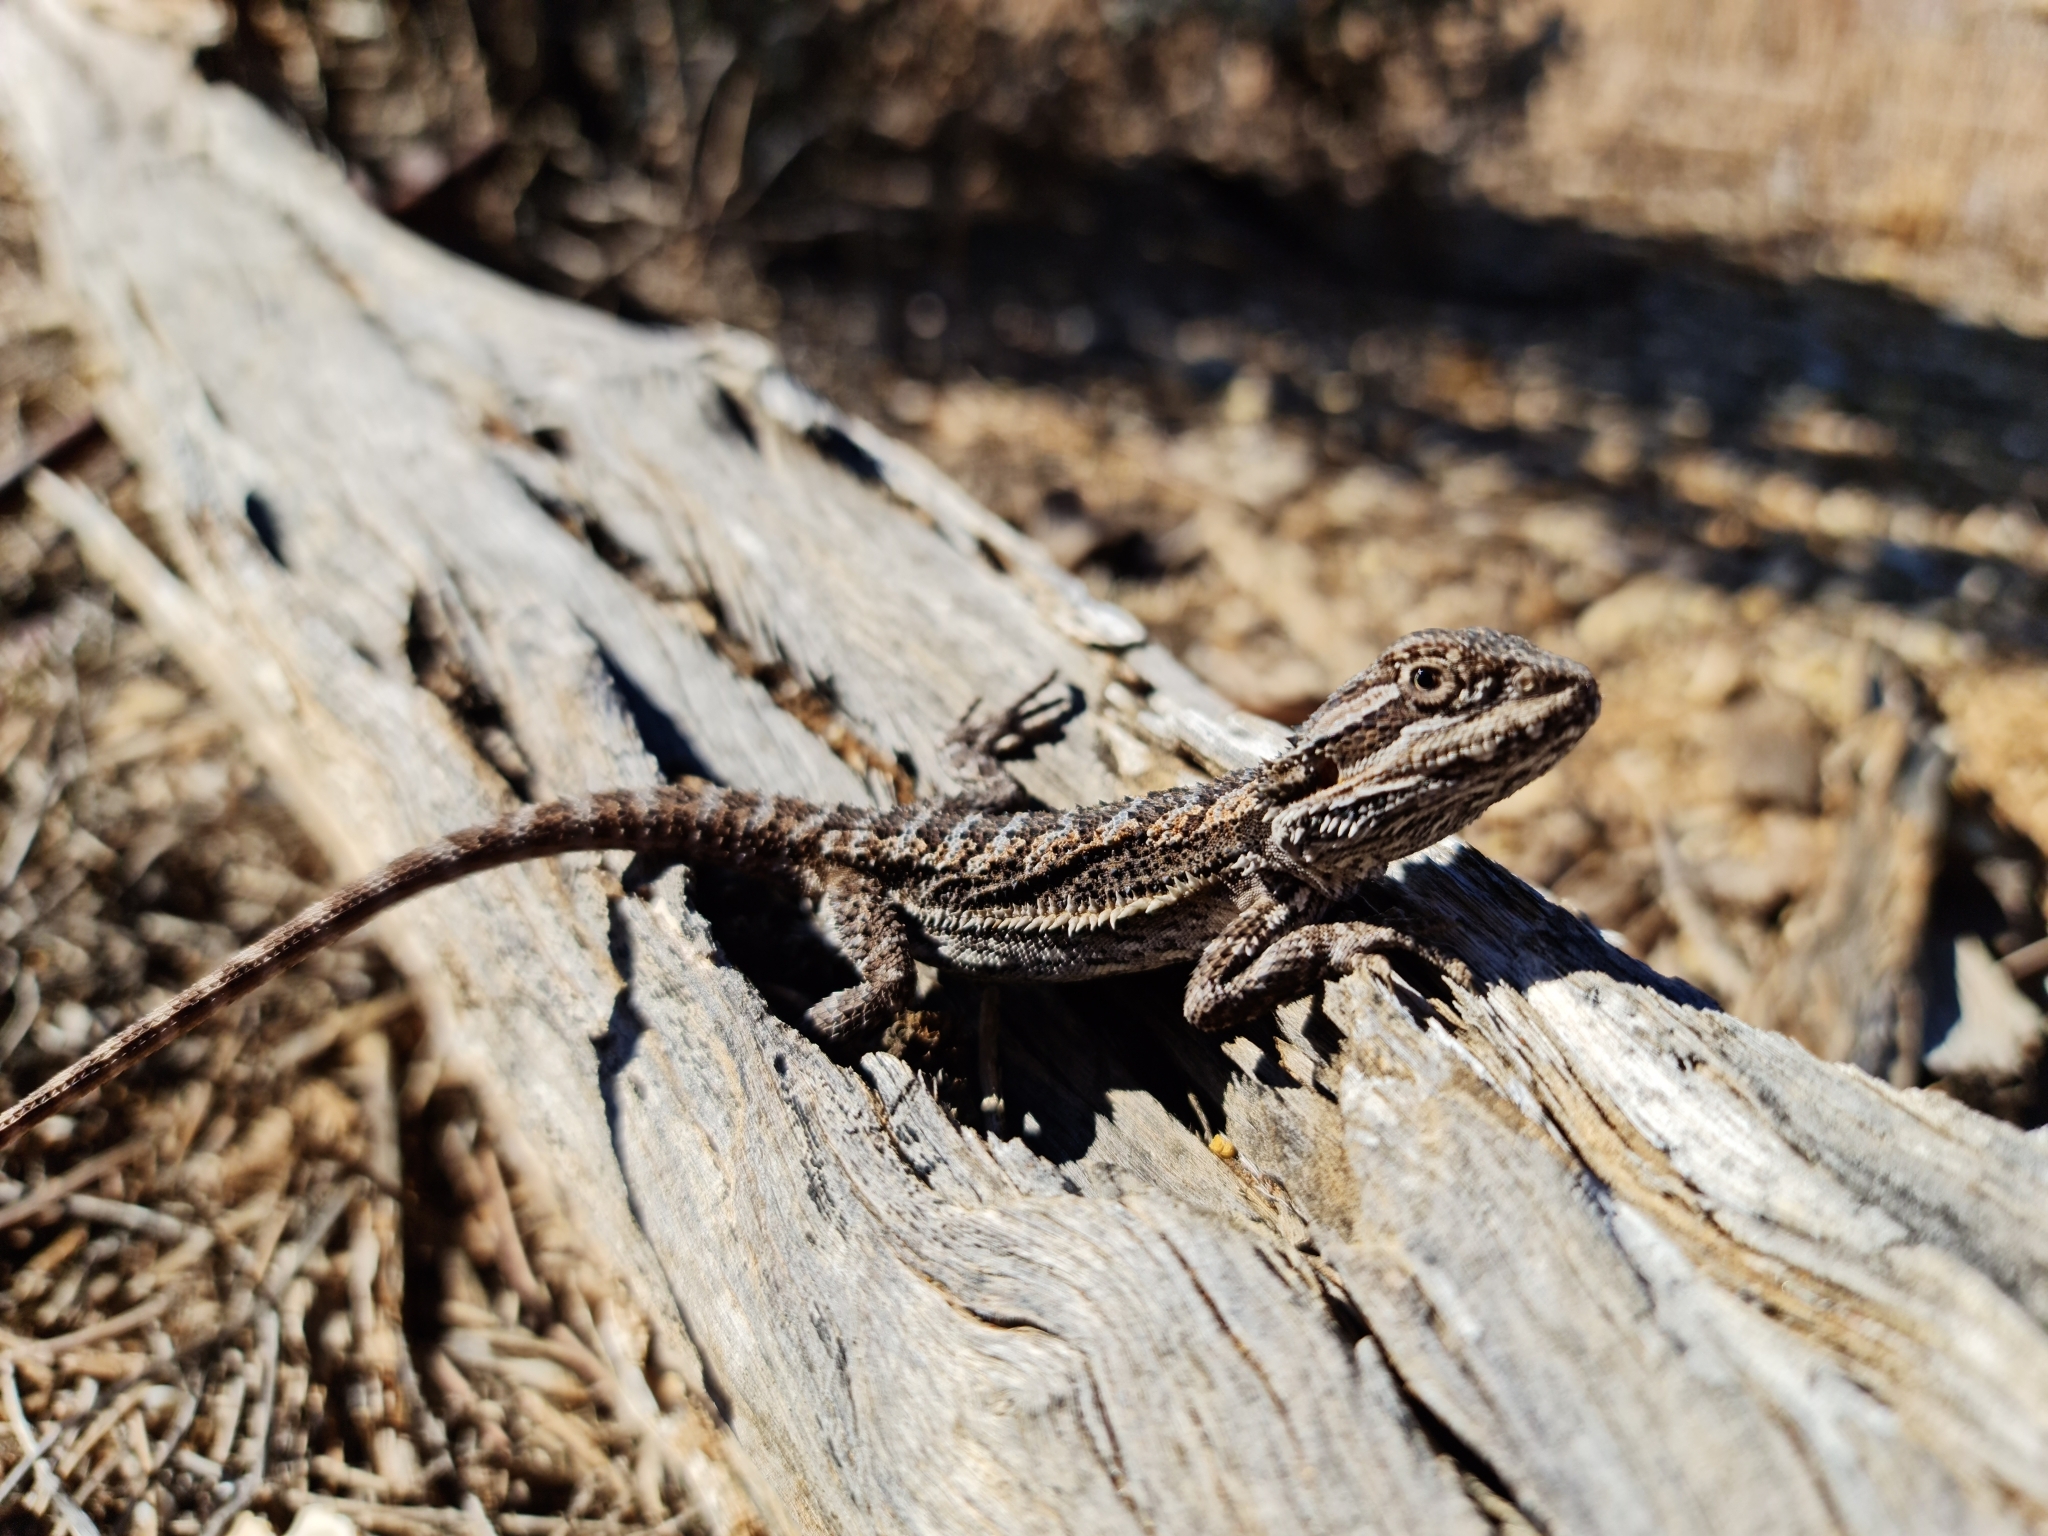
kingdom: Animalia
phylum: Chordata
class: Squamata
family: Agamidae
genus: Pogona
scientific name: Pogona vitticeps
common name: Central bearded dragon
